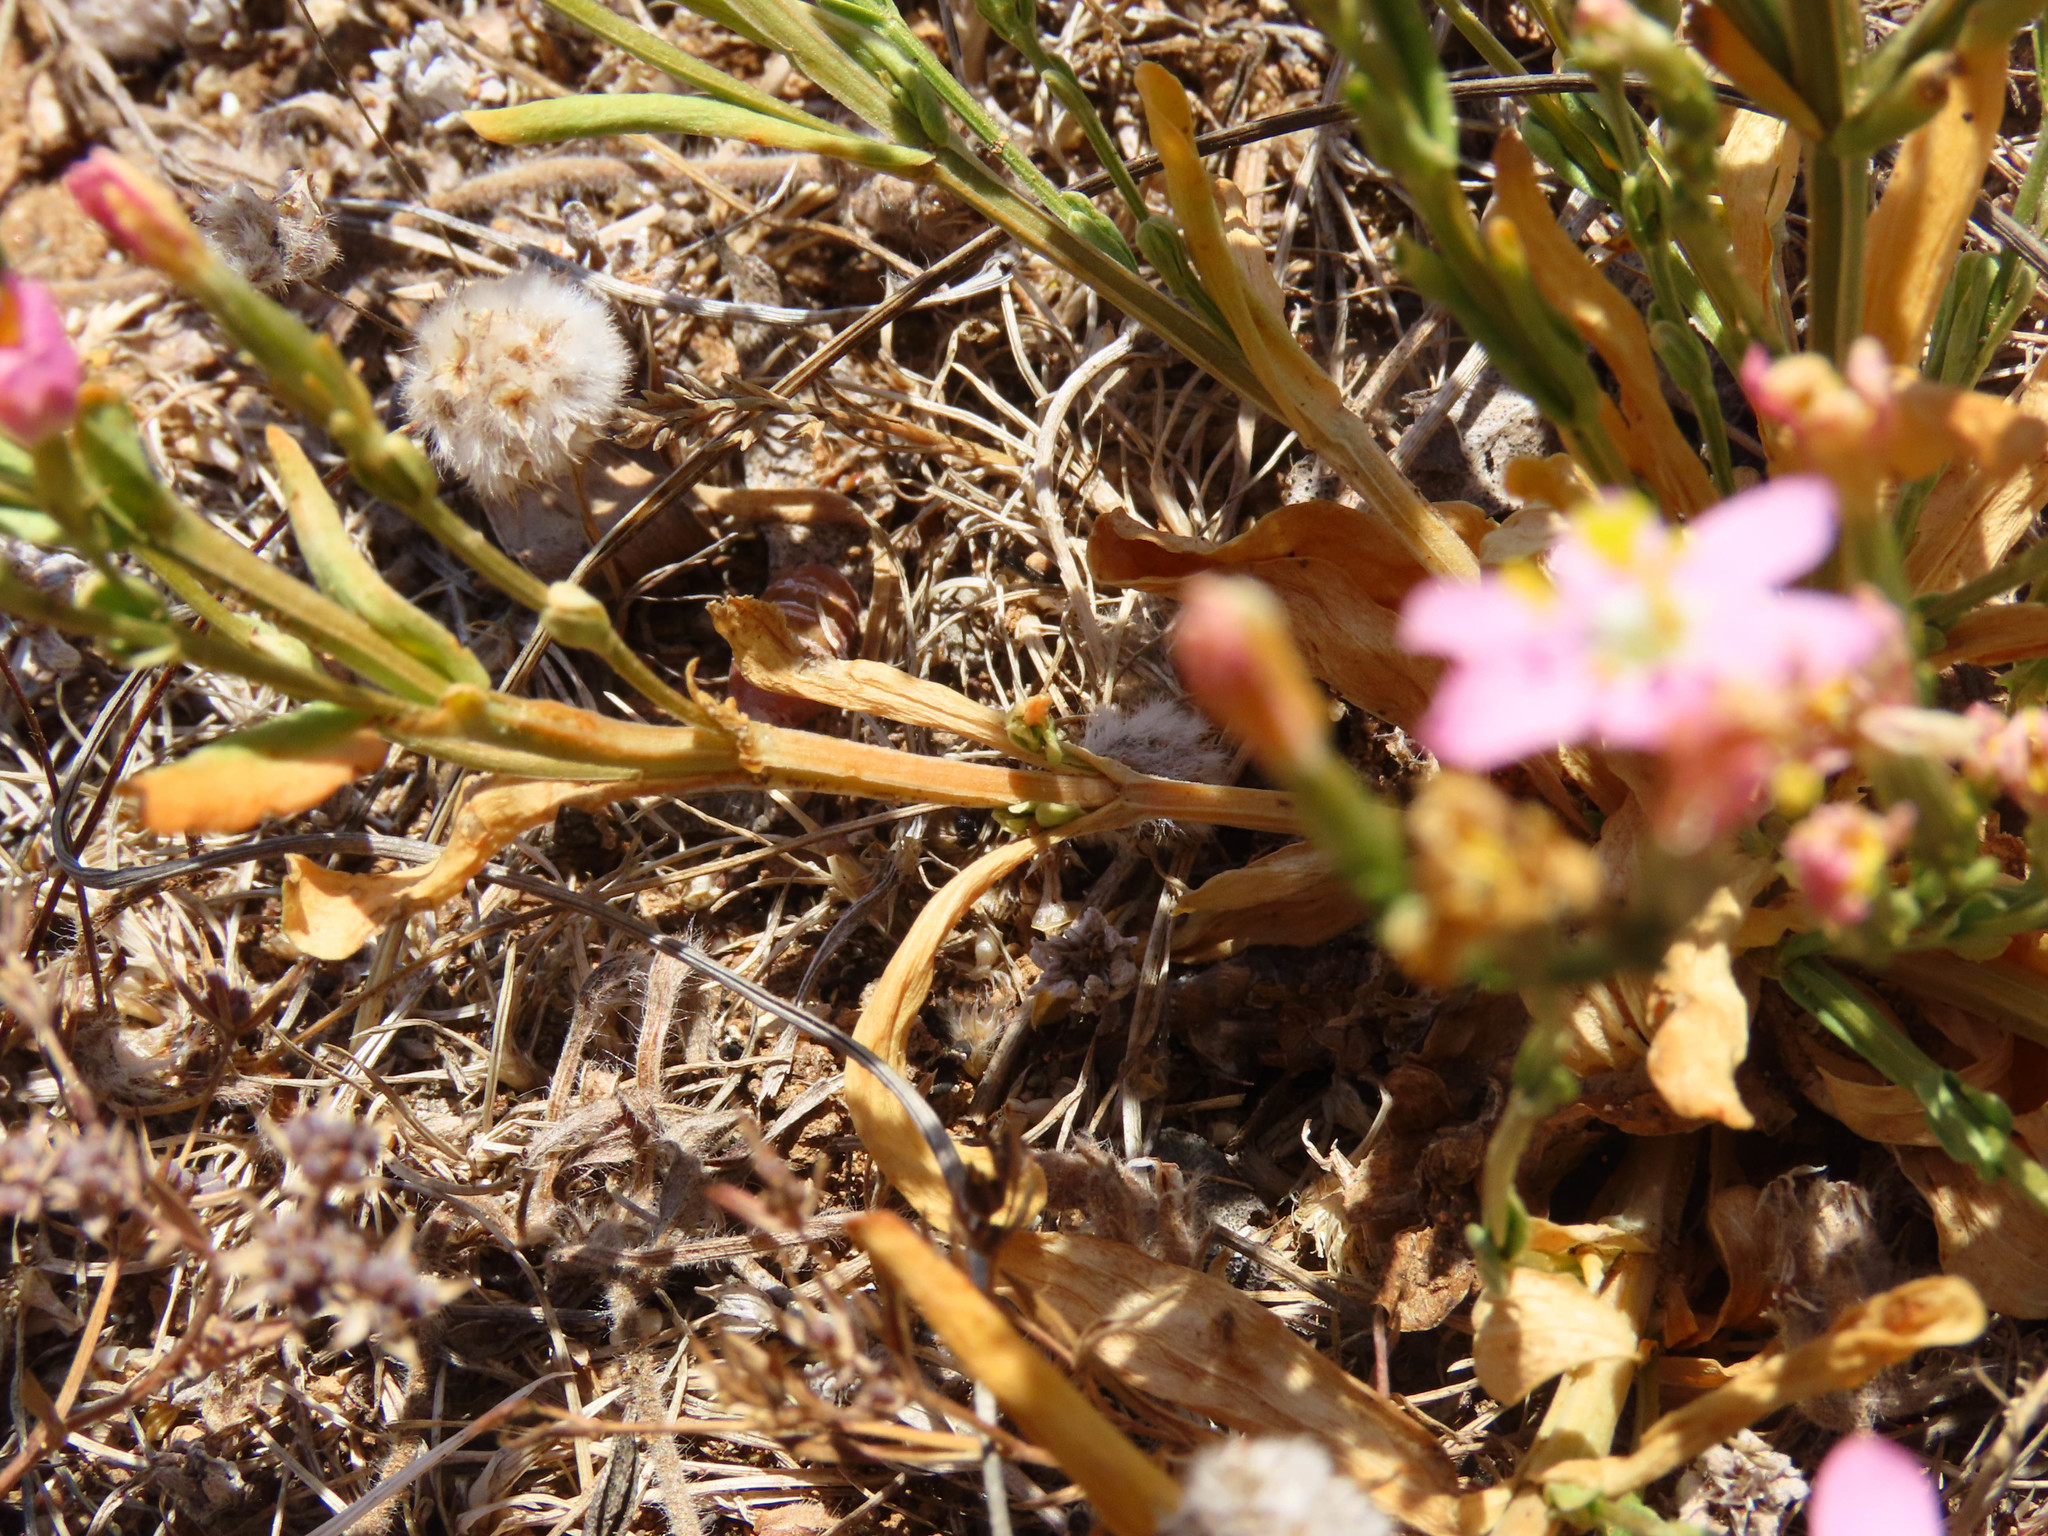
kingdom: Plantae
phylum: Tracheophyta
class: Magnoliopsida
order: Gentianales
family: Gentianaceae
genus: Centaurium
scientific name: Centaurium erythraea
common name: Common centaury
